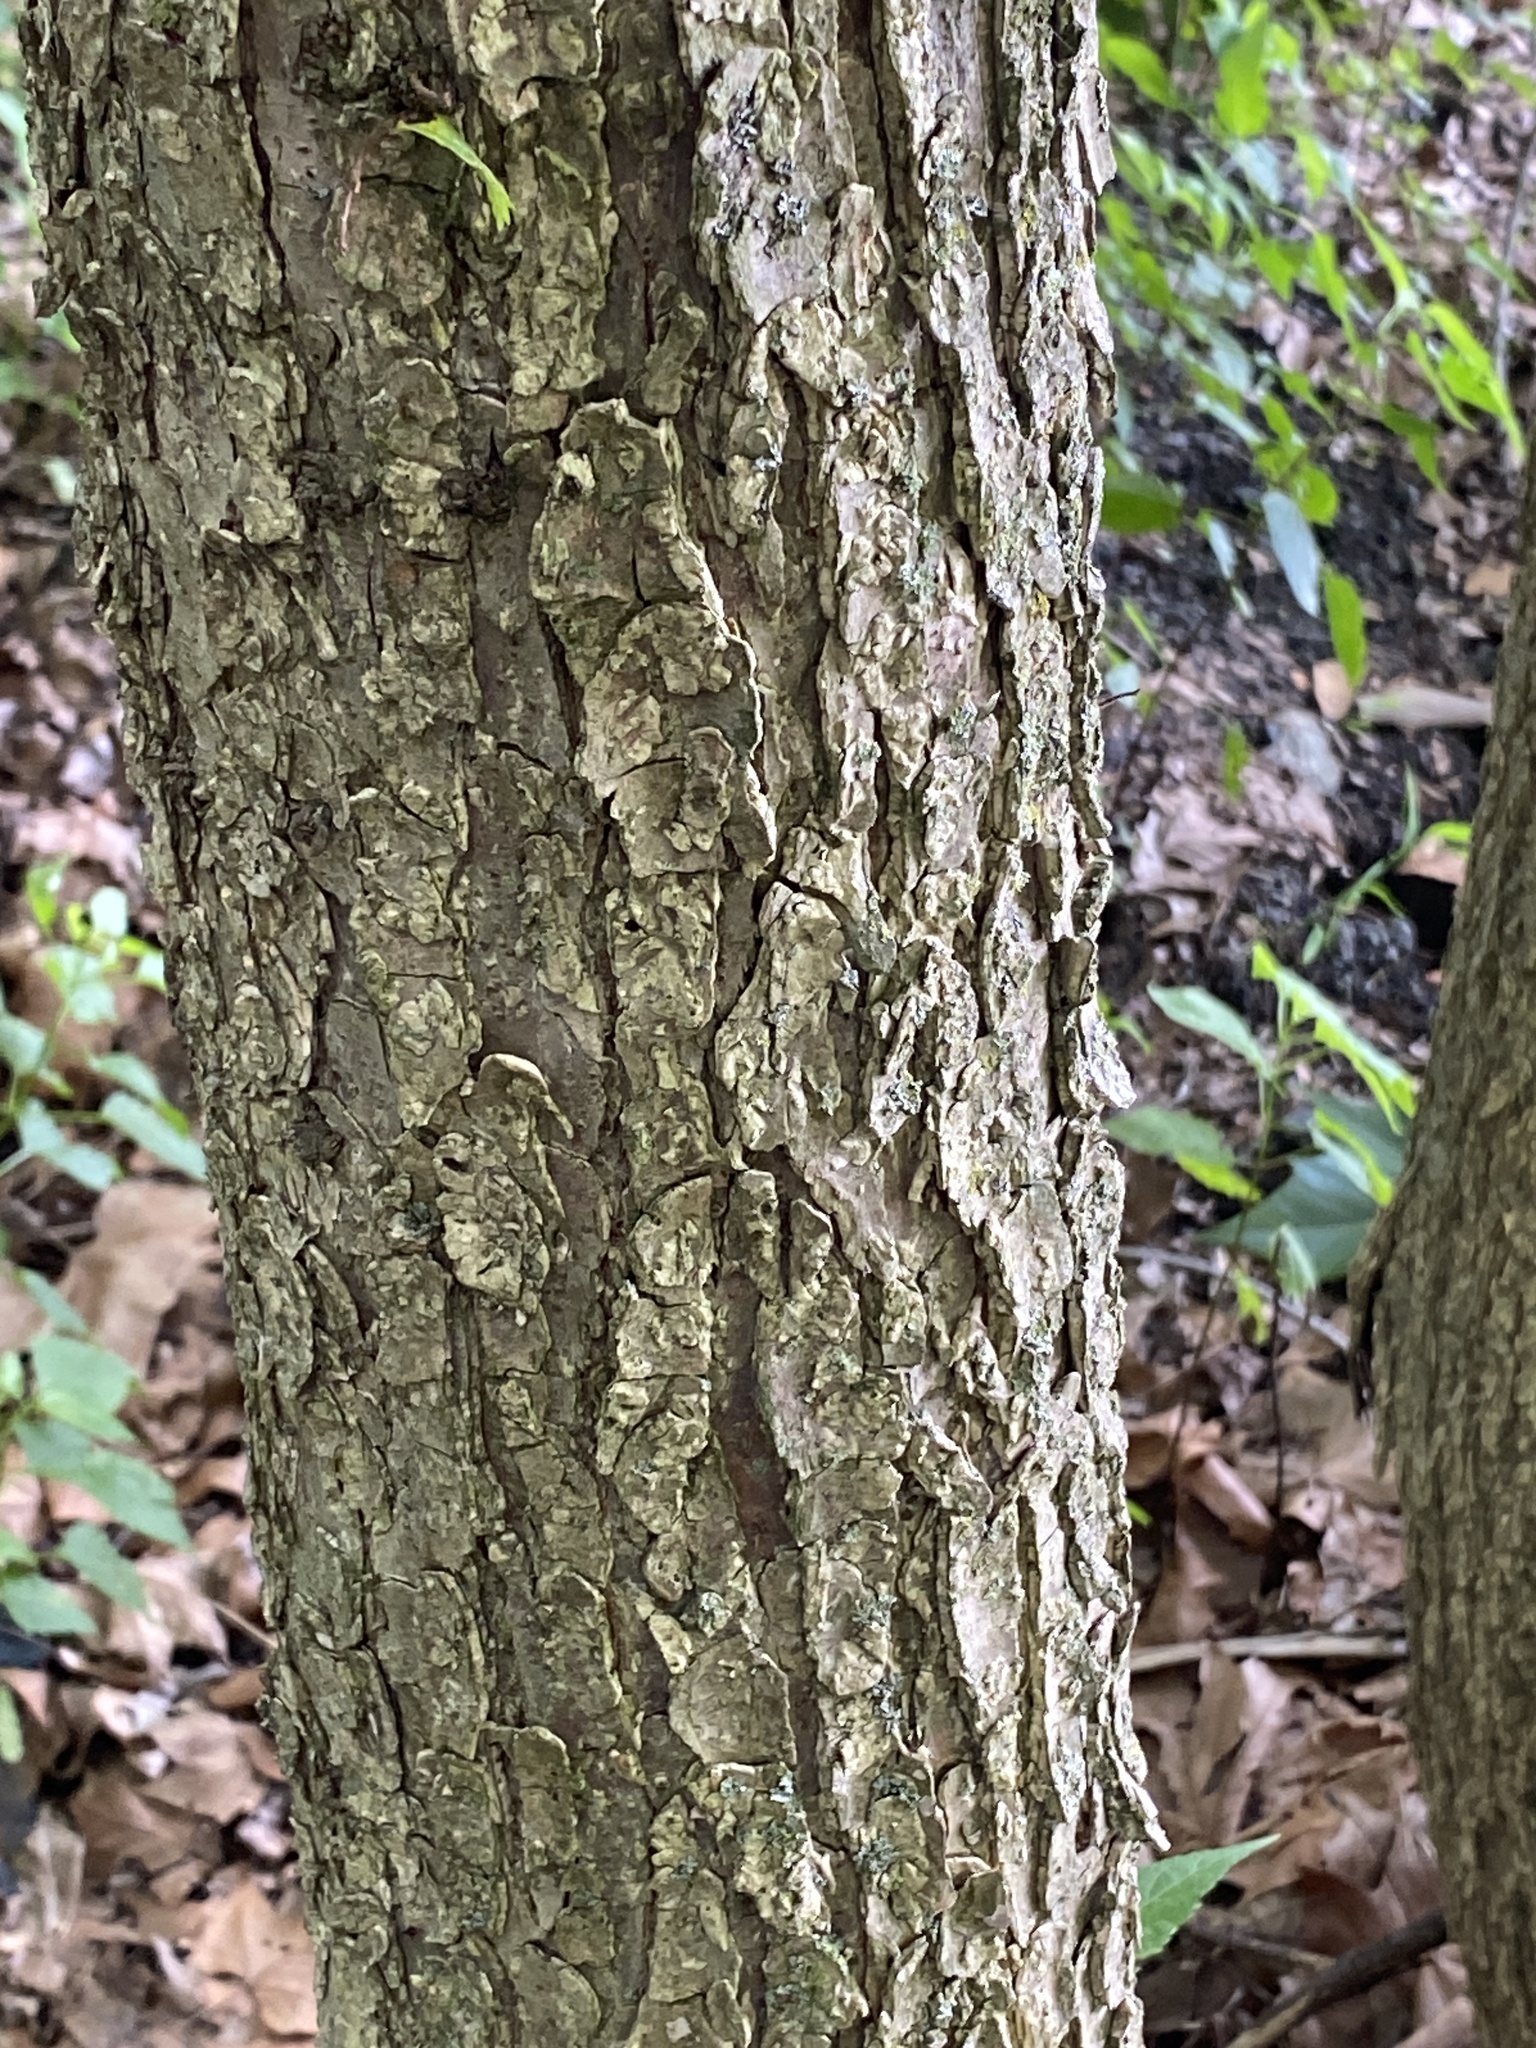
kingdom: Plantae
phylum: Tracheophyta
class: Magnoliopsida
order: Rosales
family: Ulmaceae
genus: Ulmus
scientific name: Ulmus americana
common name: American elm
